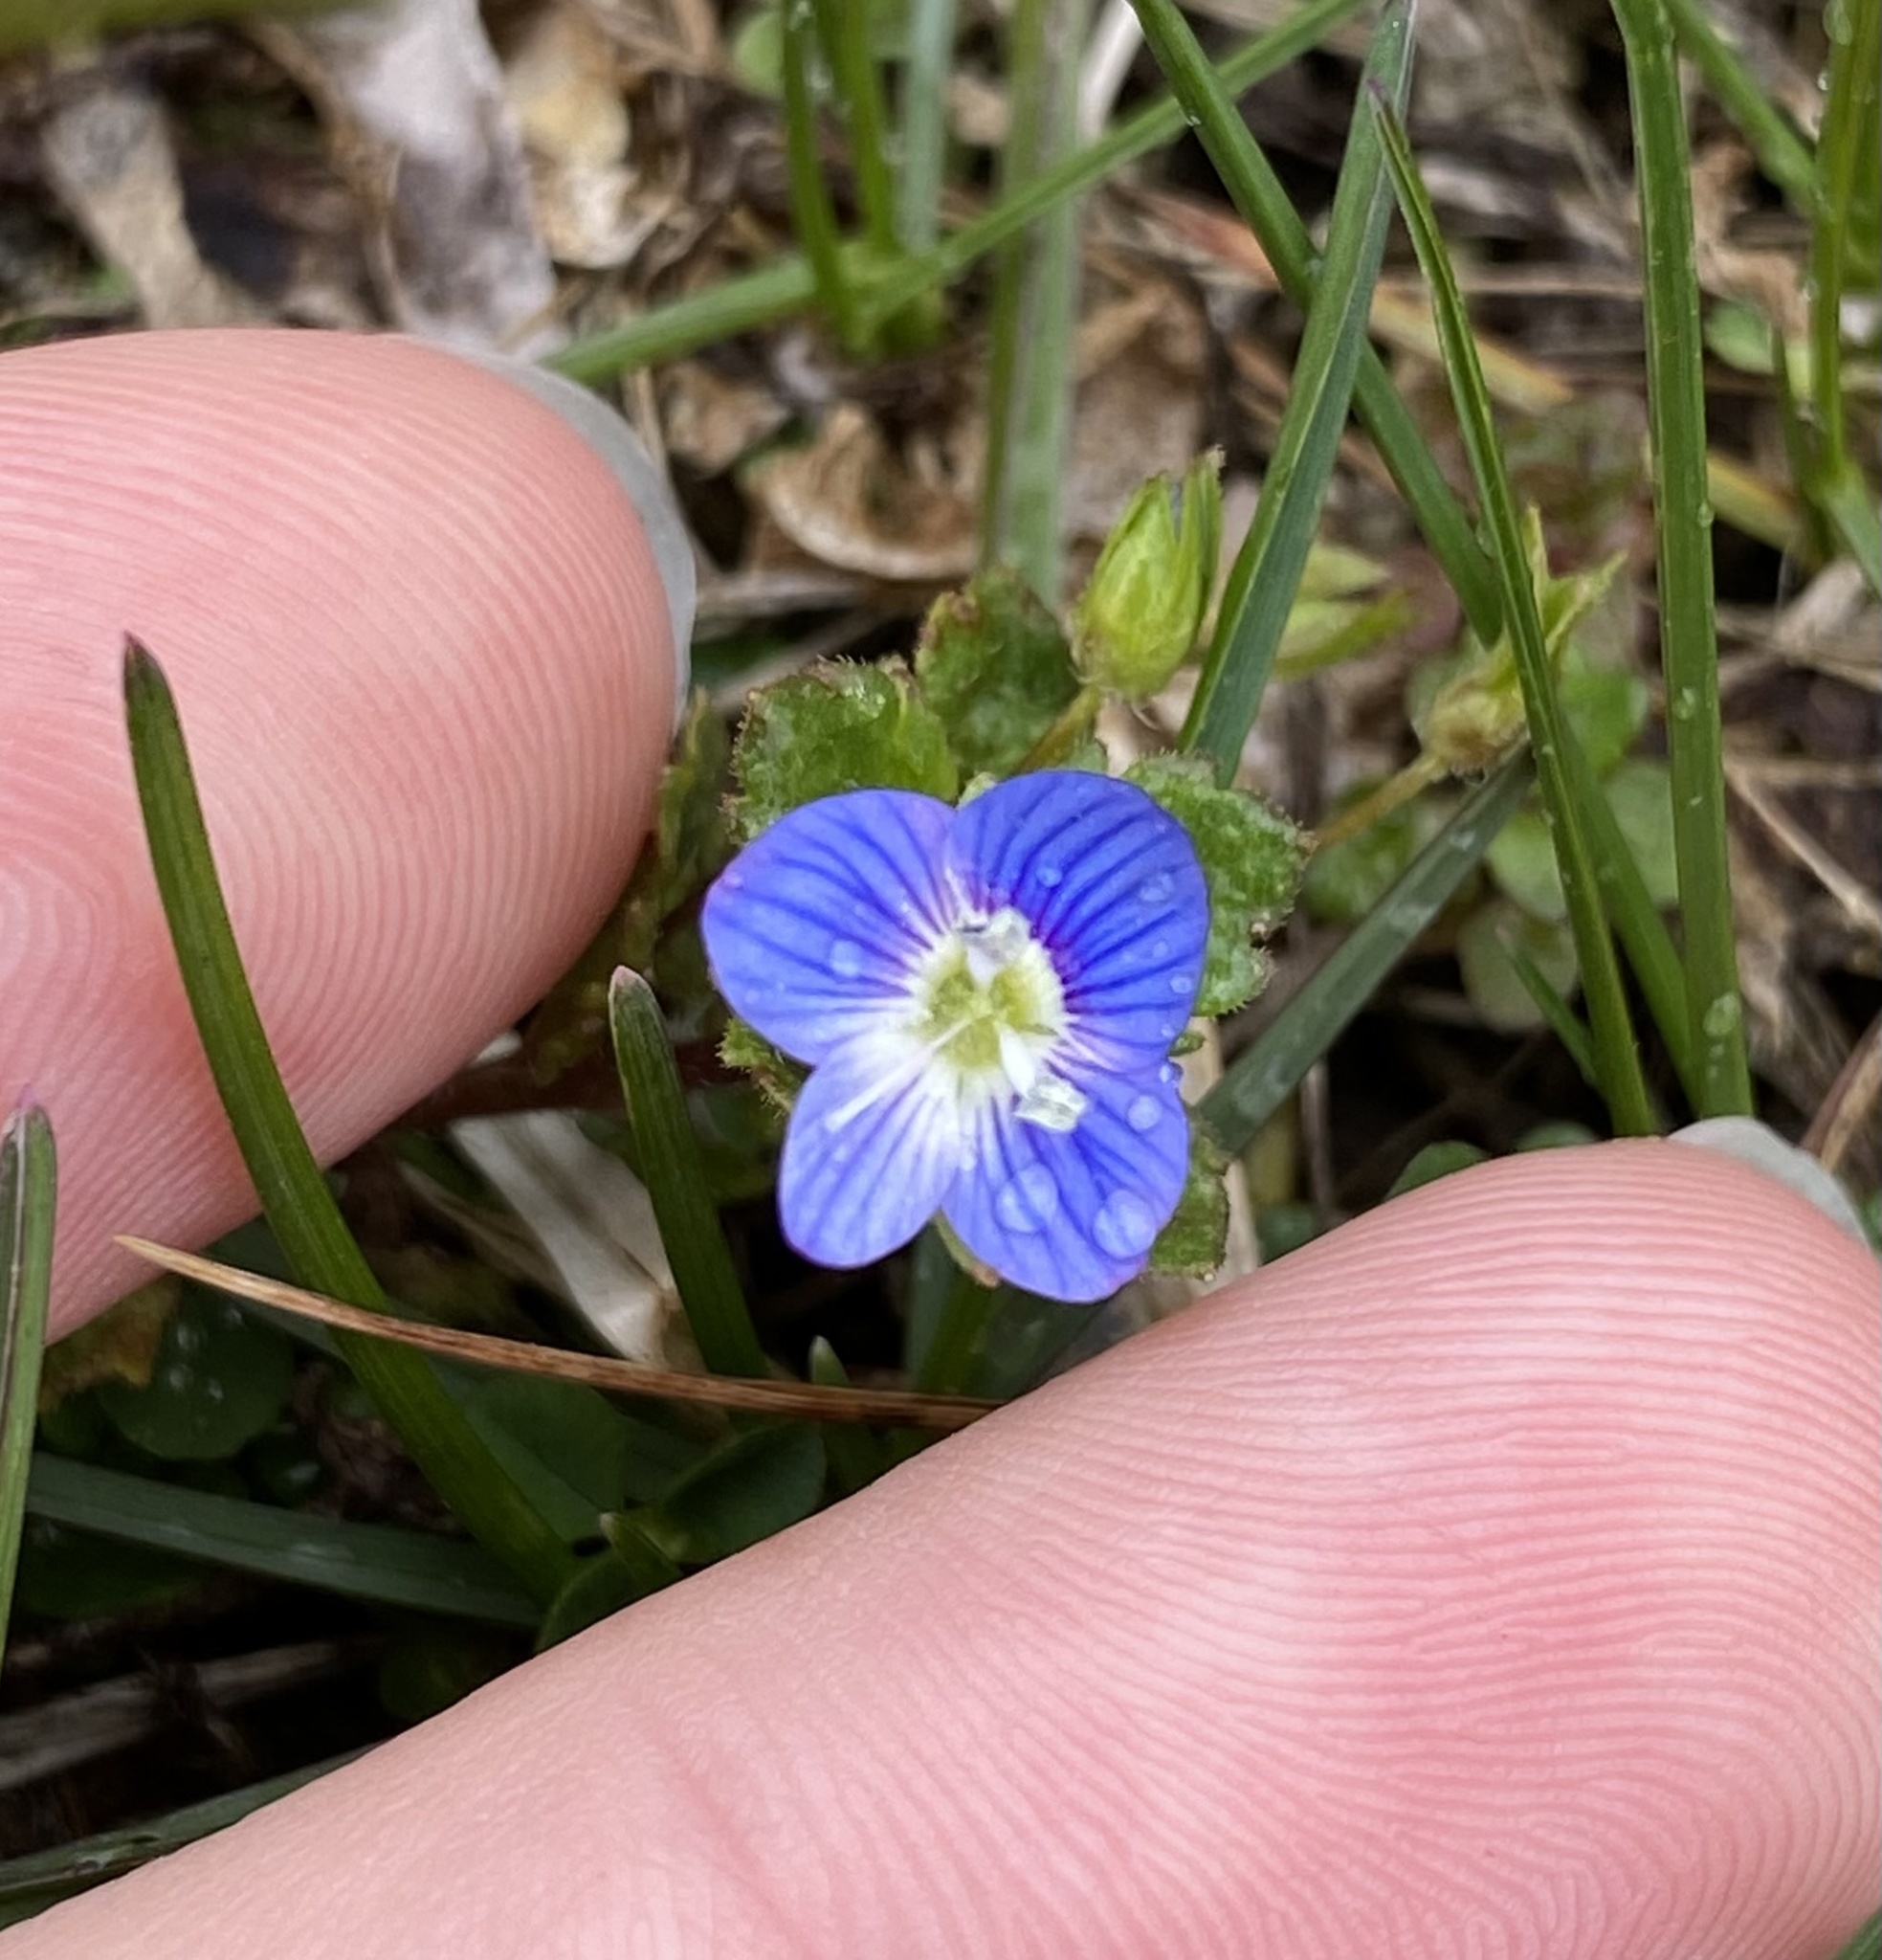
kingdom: Plantae
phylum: Tracheophyta
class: Magnoliopsida
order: Lamiales
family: Plantaginaceae
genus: Veronica
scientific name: Veronica persica
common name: Common field-speedwell
